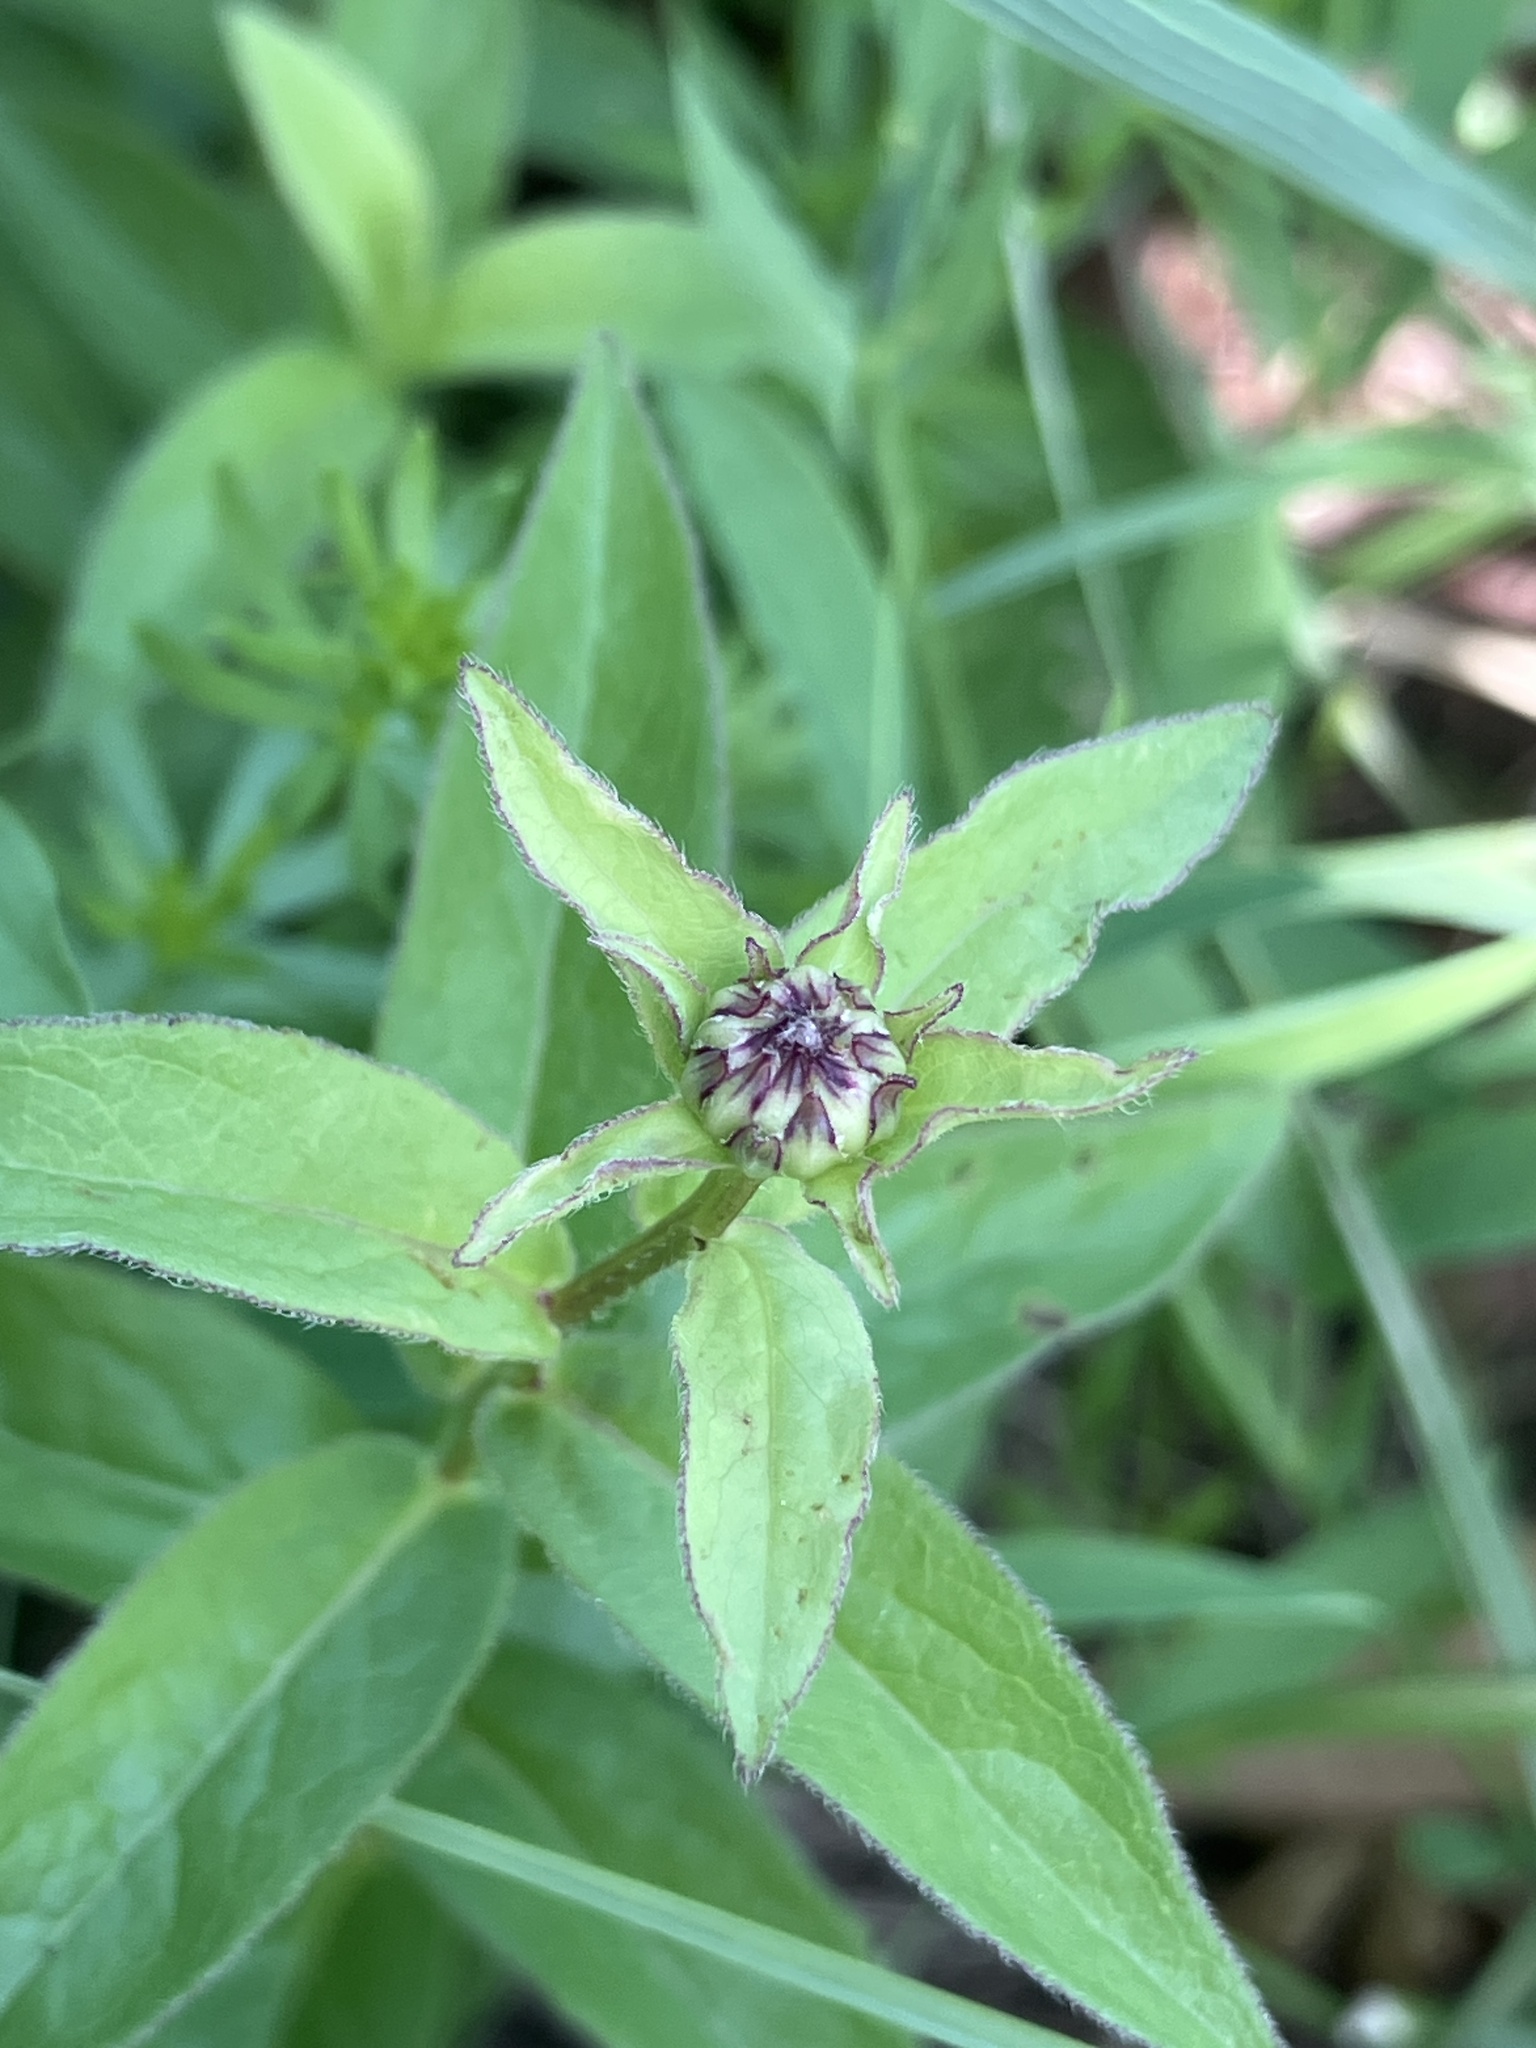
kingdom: Plantae
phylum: Tracheophyta
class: Magnoliopsida
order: Asterales
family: Asteraceae
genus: Pentanema
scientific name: Pentanema salicinum
